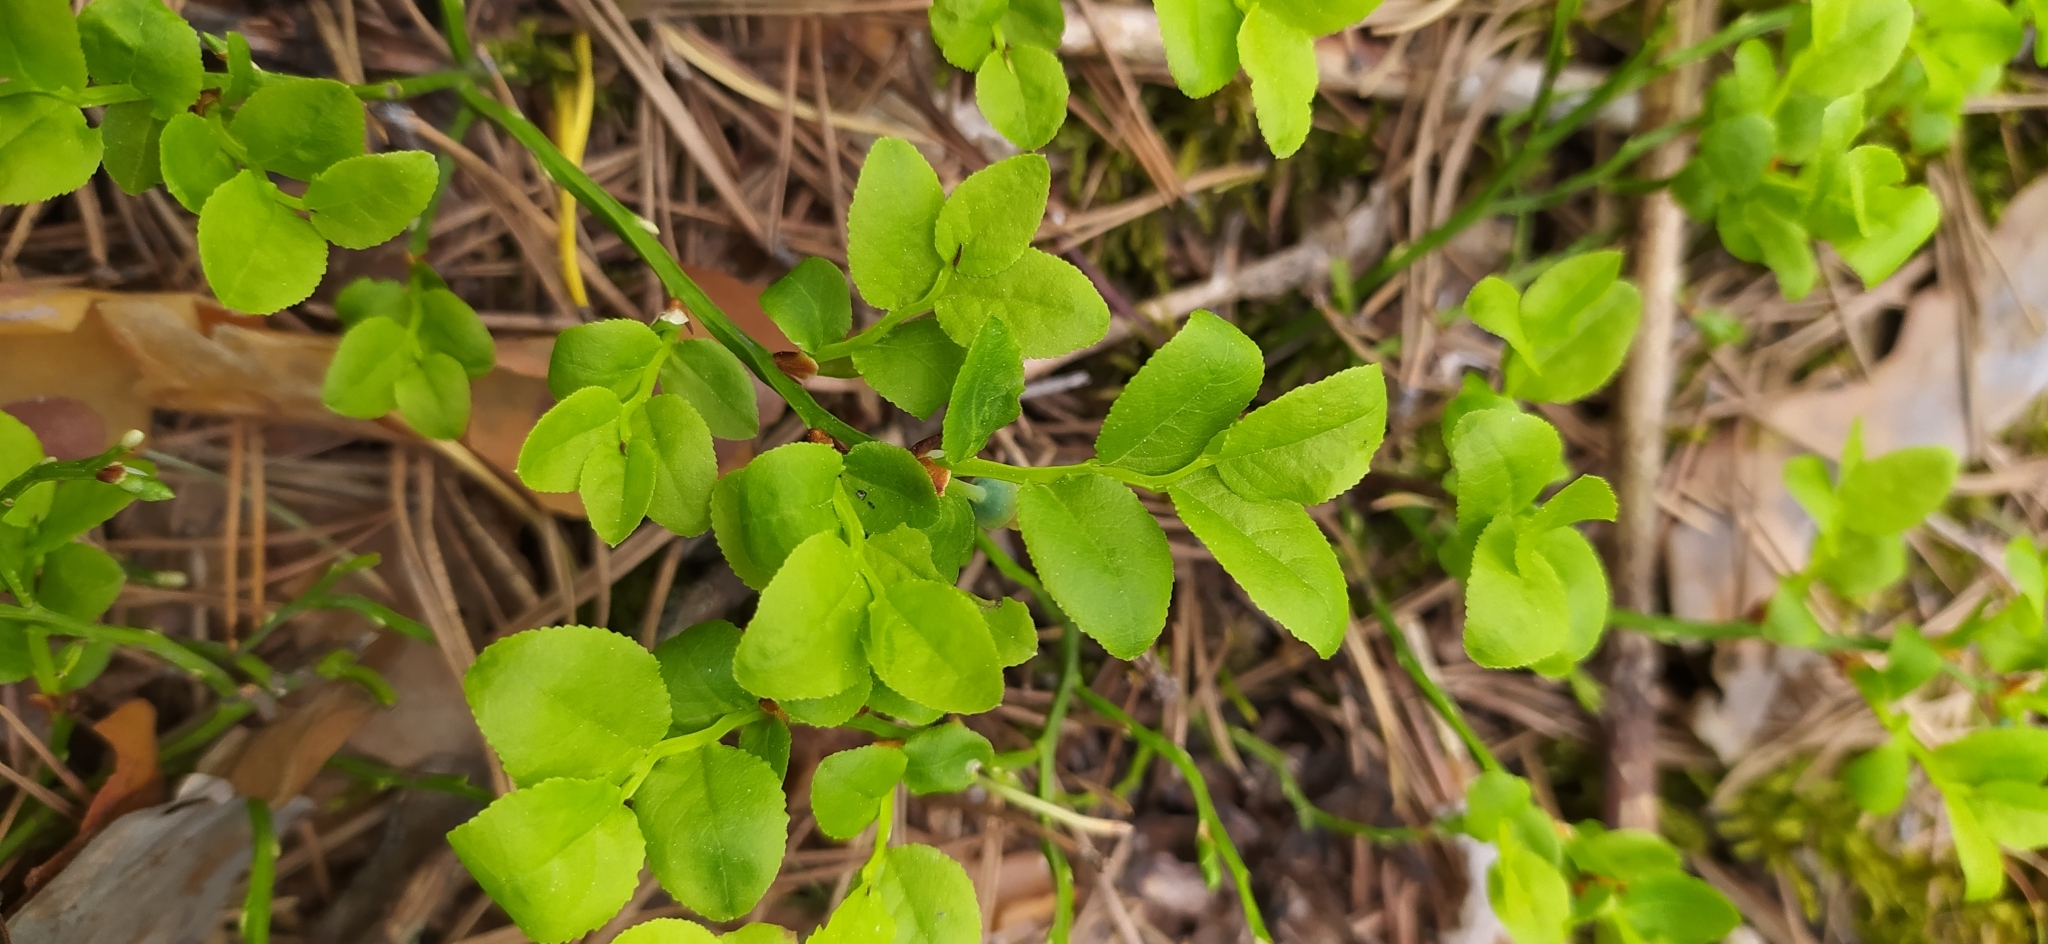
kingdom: Plantae
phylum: Tracheophyta
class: Magnoliopsida
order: Ericales
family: Ericaceae
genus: Vaccinium
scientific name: Vaccinium myrtillus
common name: Bilberry
